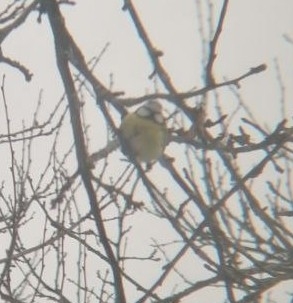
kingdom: Animalia
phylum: Chordata
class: Aves
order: Passeriformes
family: Paridae
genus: Cyanistes
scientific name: Cyanistes caeruleus
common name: Eurasian blue tit
